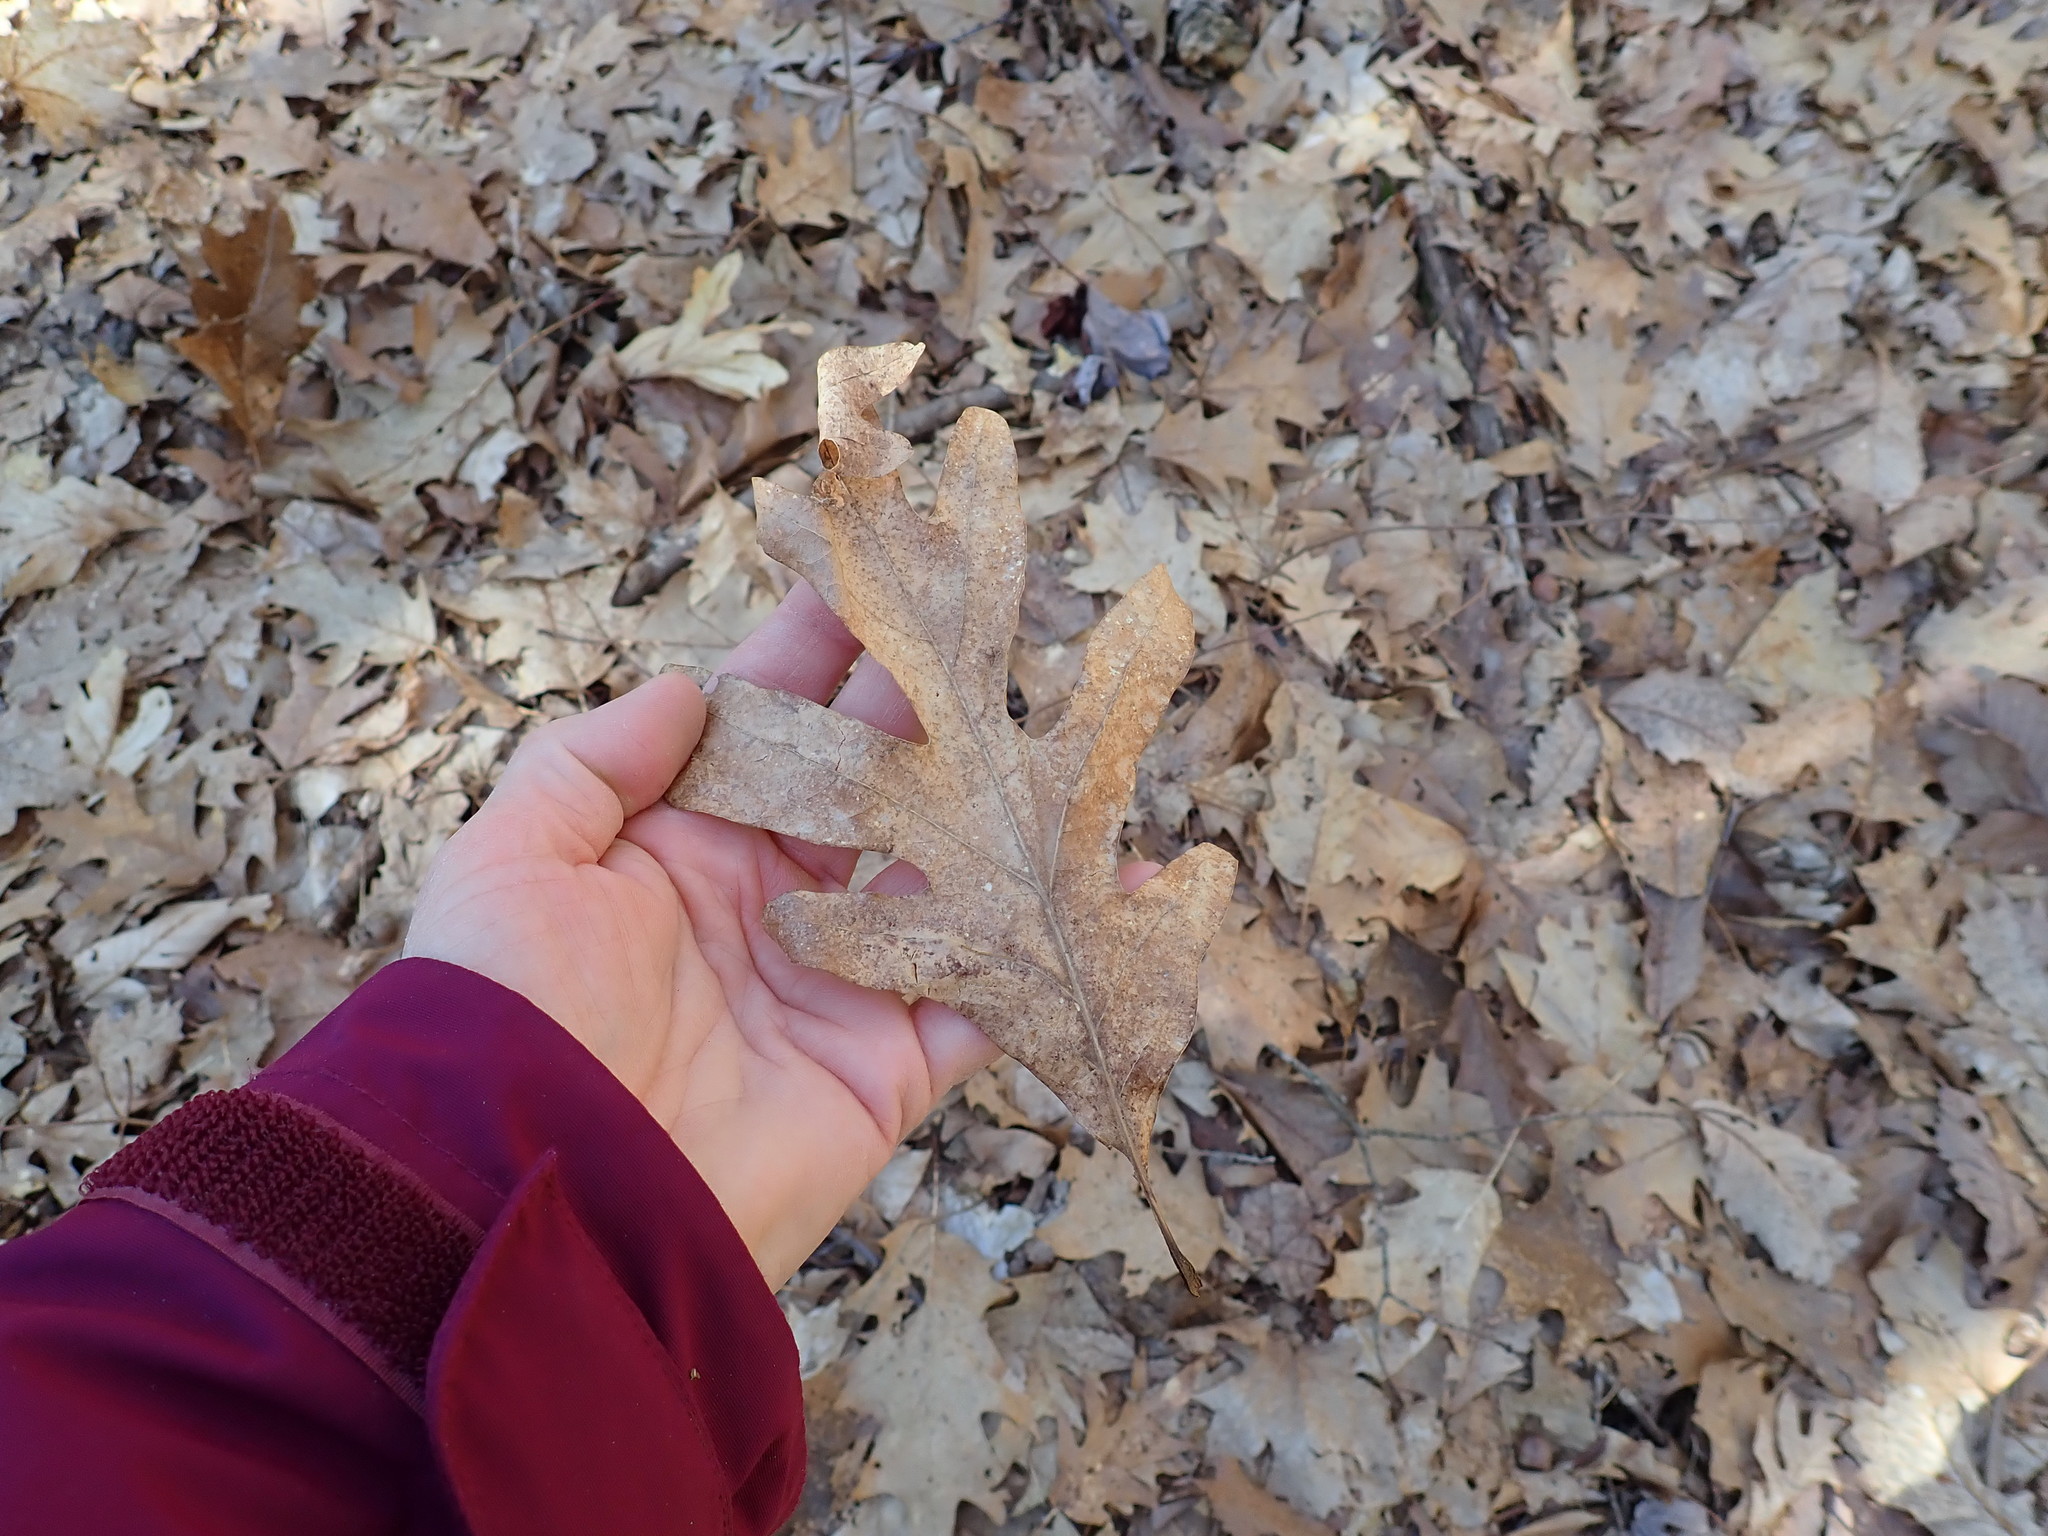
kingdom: Plantae
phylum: Tracheophyta
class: Magnoliopsida
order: Fagales
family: Fagaceae
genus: Quercus
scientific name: Quercus alba
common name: White oak
